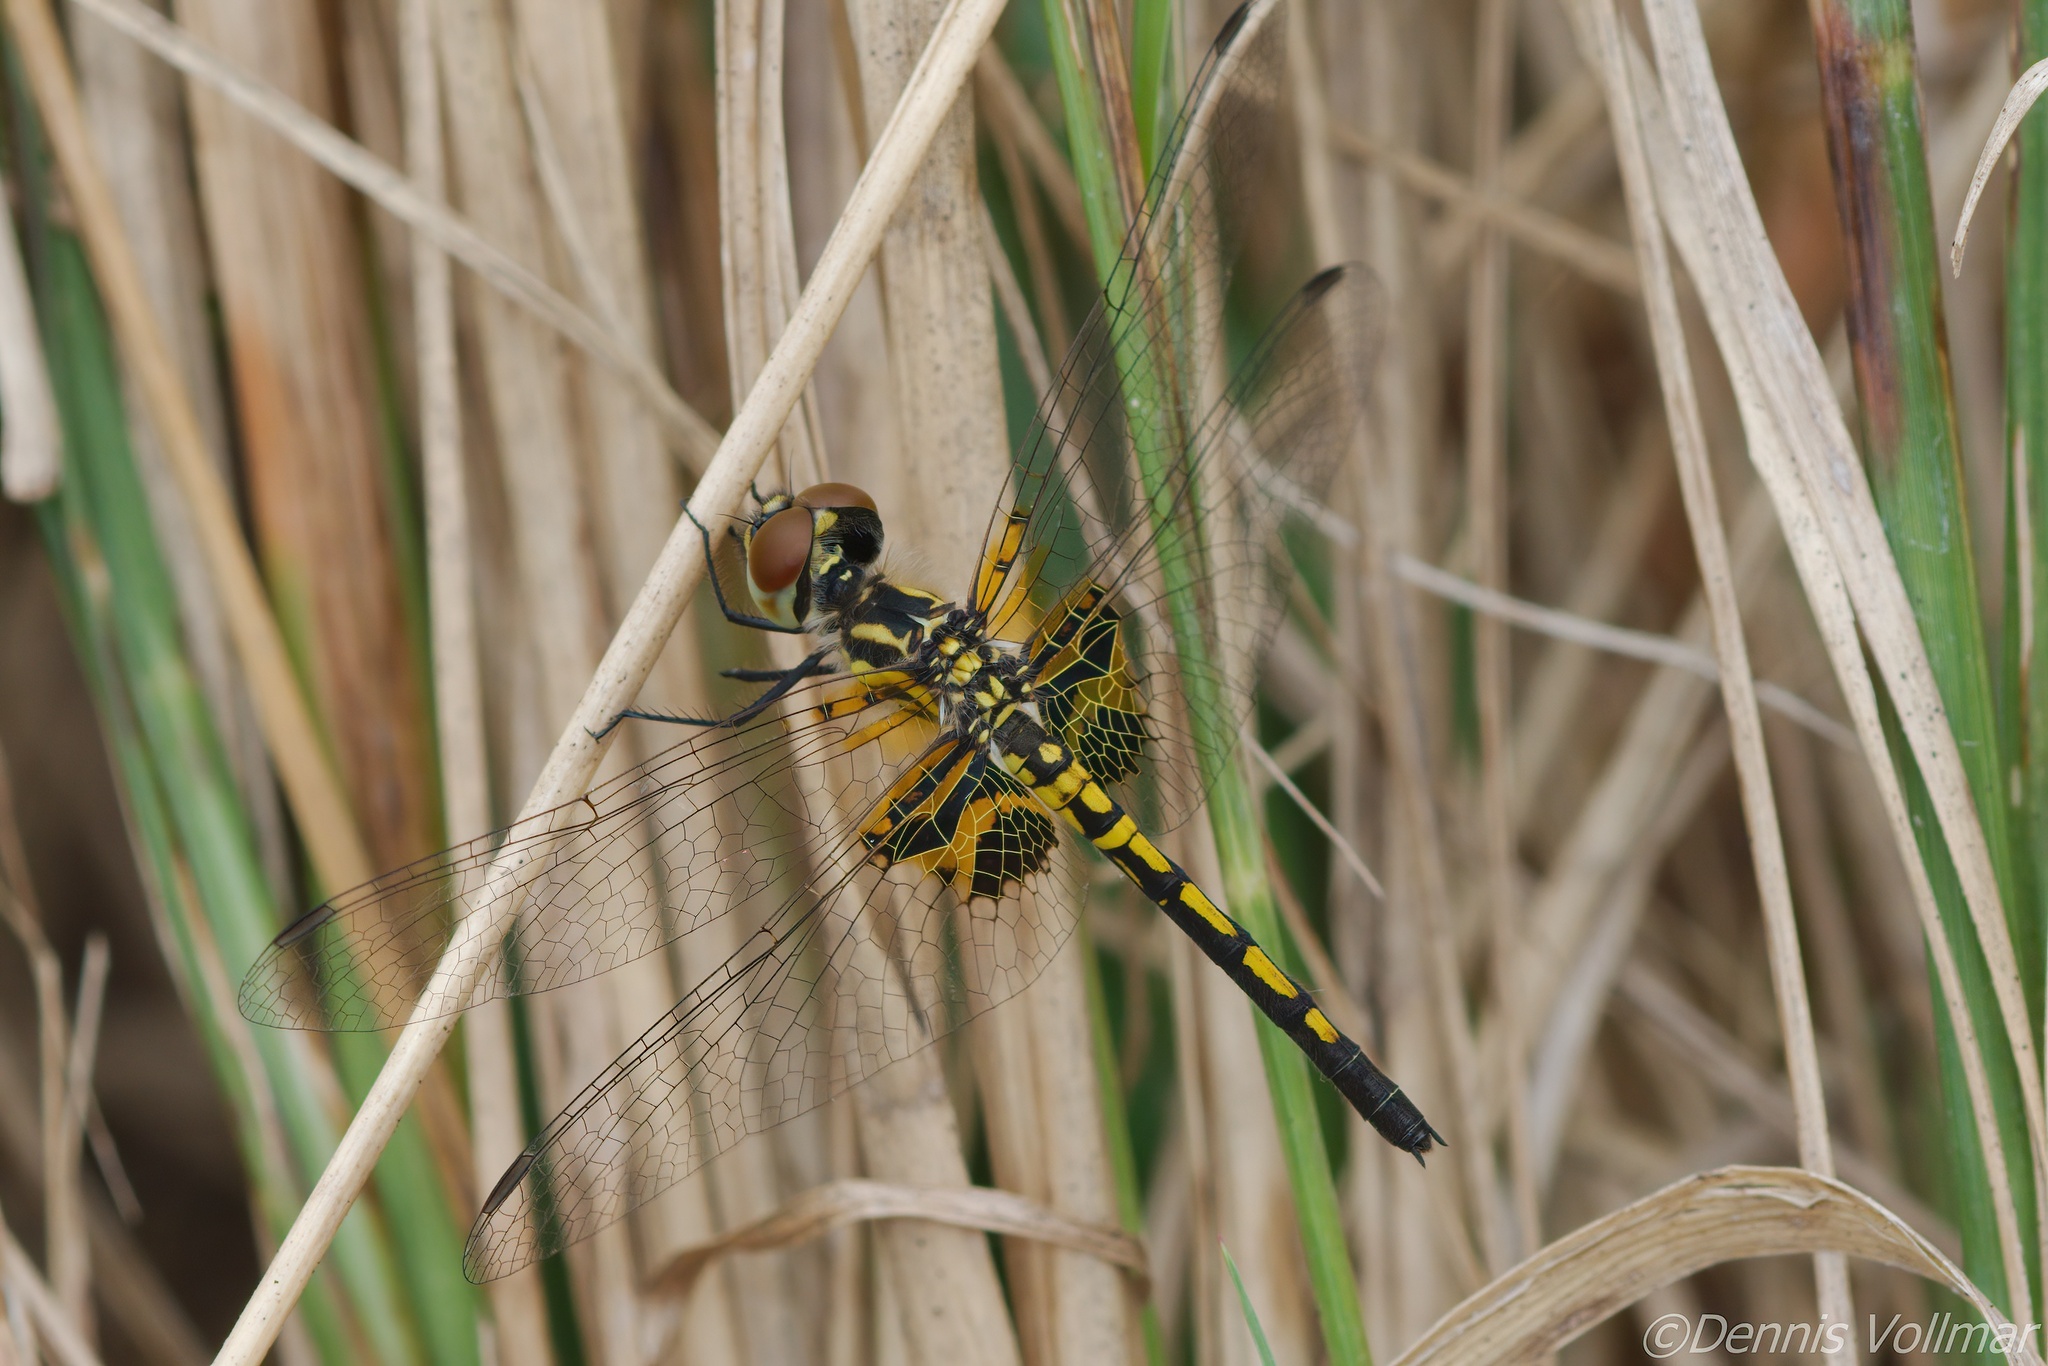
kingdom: Animalia
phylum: Arthropoda
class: Insecta
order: Odonata
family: Libellulidae
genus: Celithemis
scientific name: Celithemis ornata
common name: Ornate pennant
